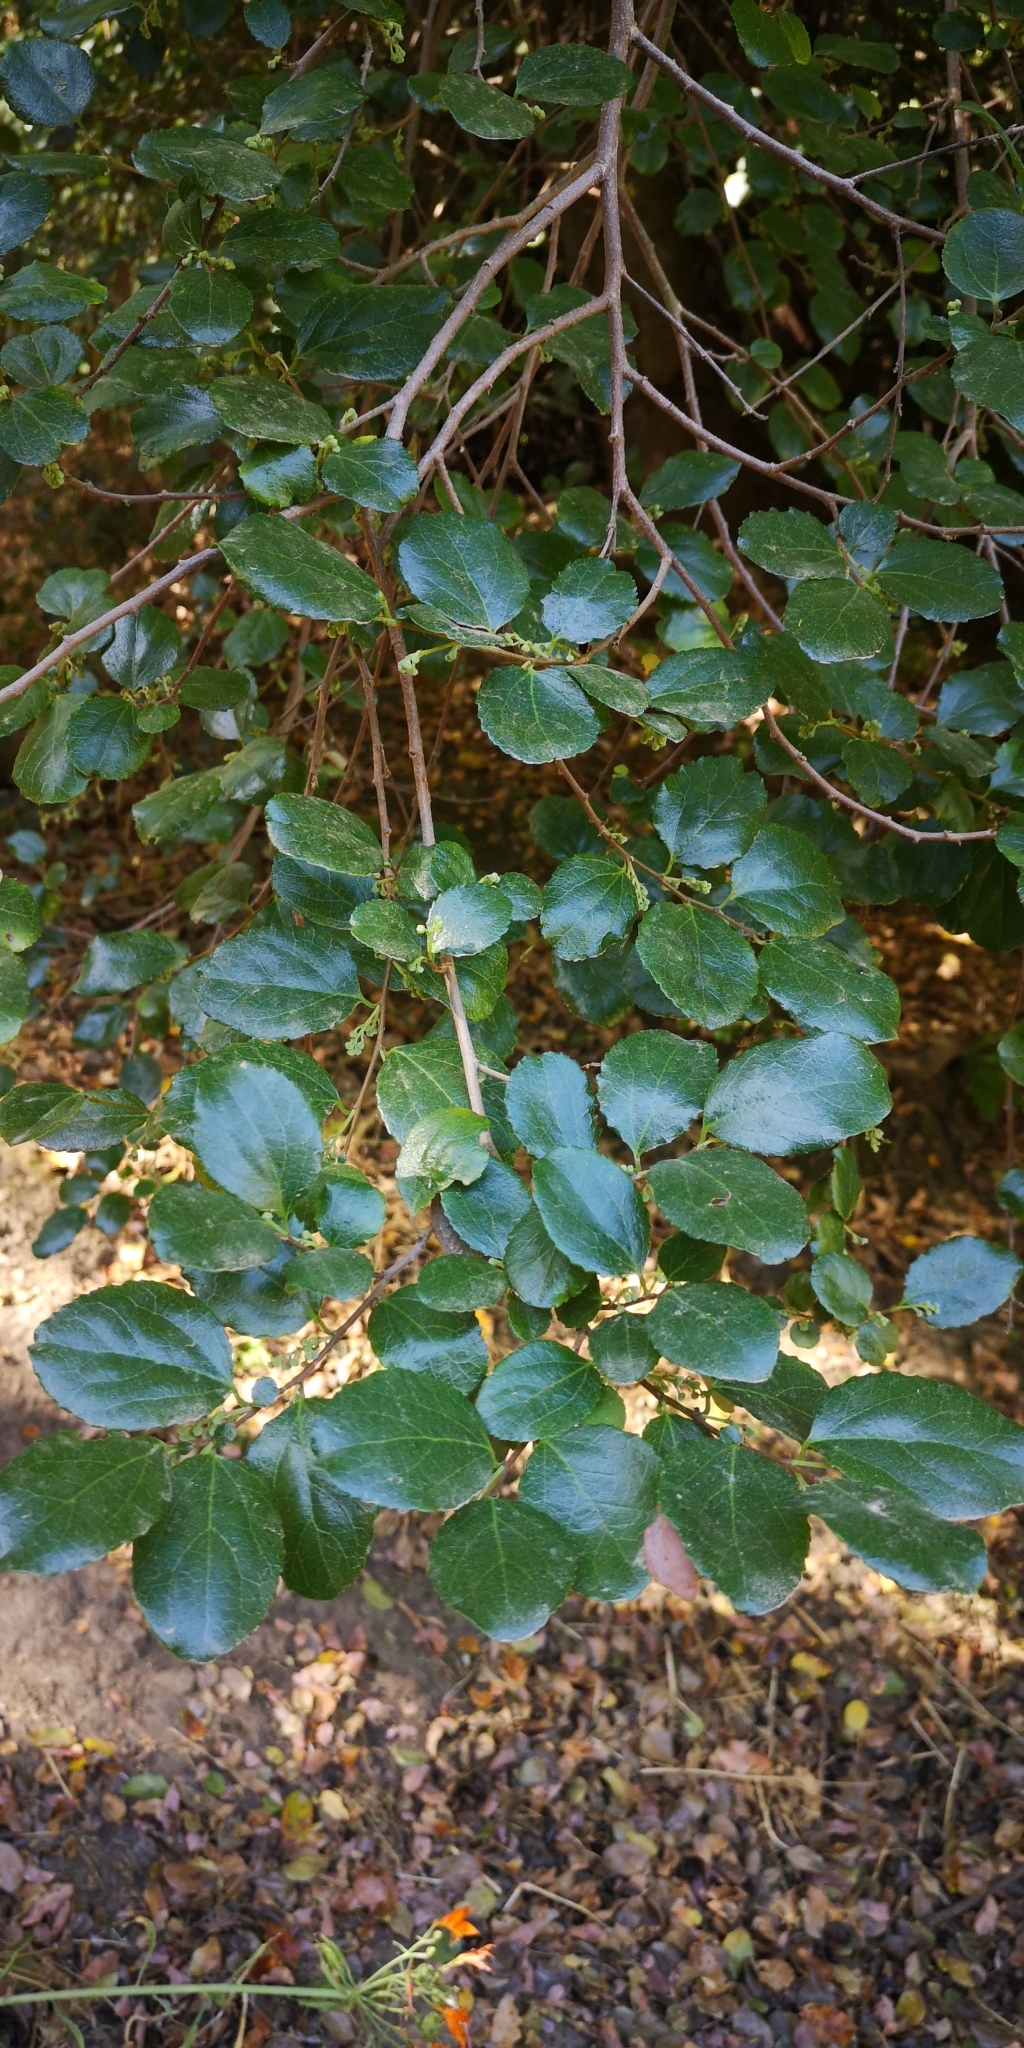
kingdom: Plantae
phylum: Tracheophyta
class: Magnoliopsida
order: Malpighiales
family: Salicaceae
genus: Azara
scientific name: Azara celastrina
